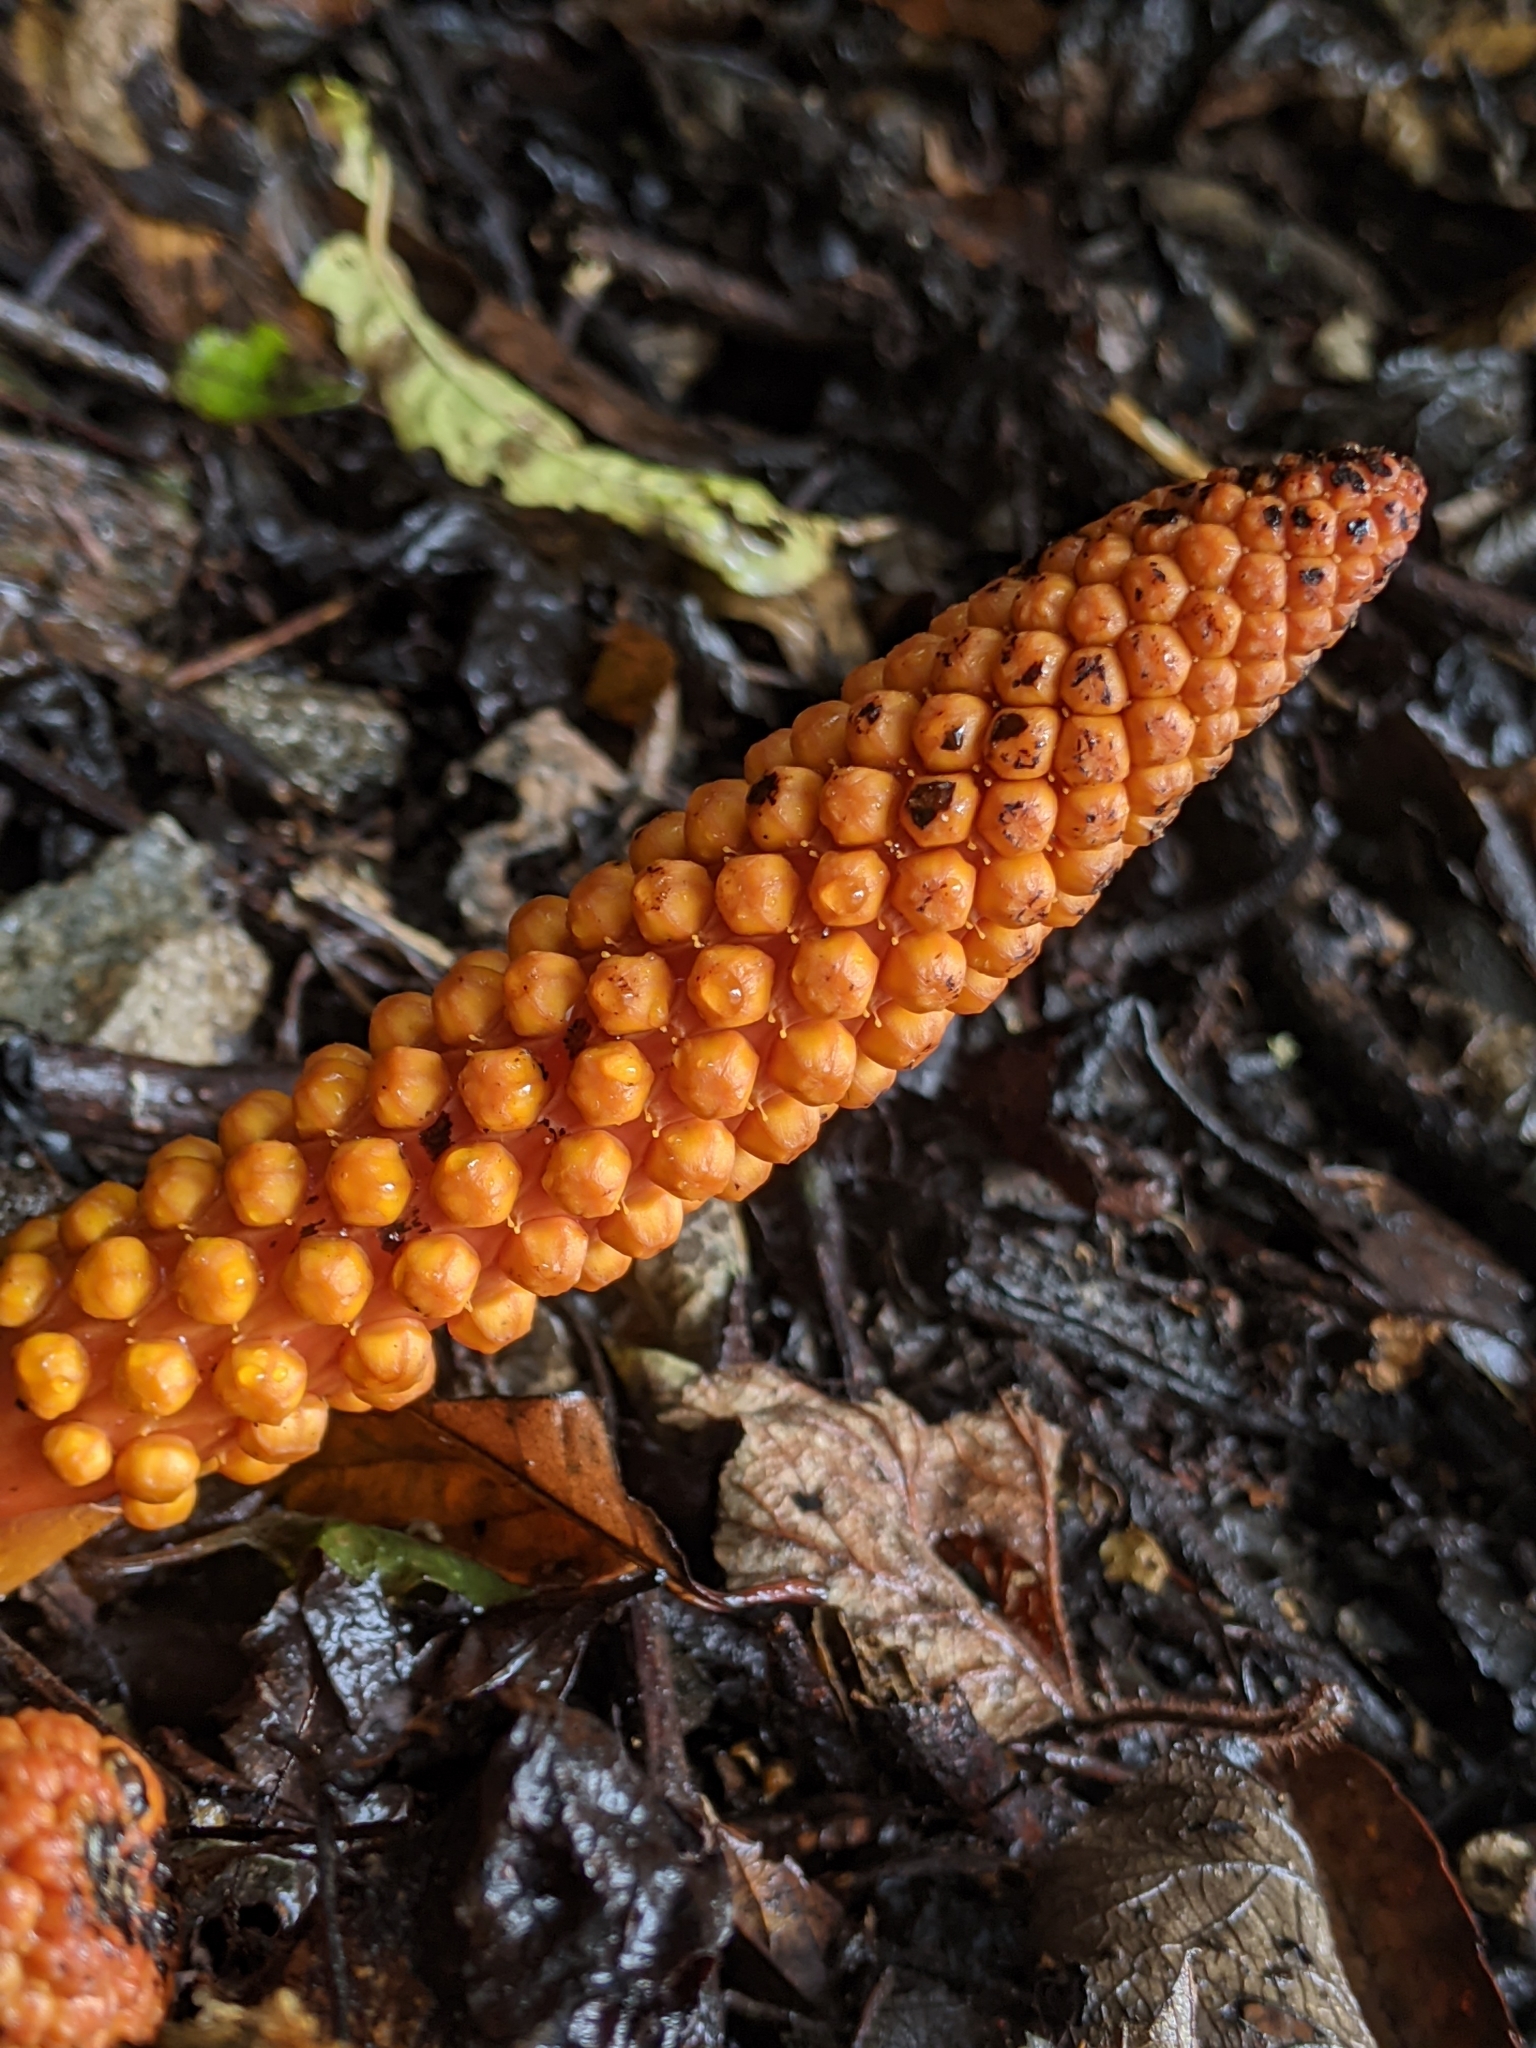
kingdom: Plantae
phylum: Tracheophyta
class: Magnoliopsida
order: Santalales
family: Balanophoraceae
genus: Balanophora
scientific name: Balanophora laxiflora
